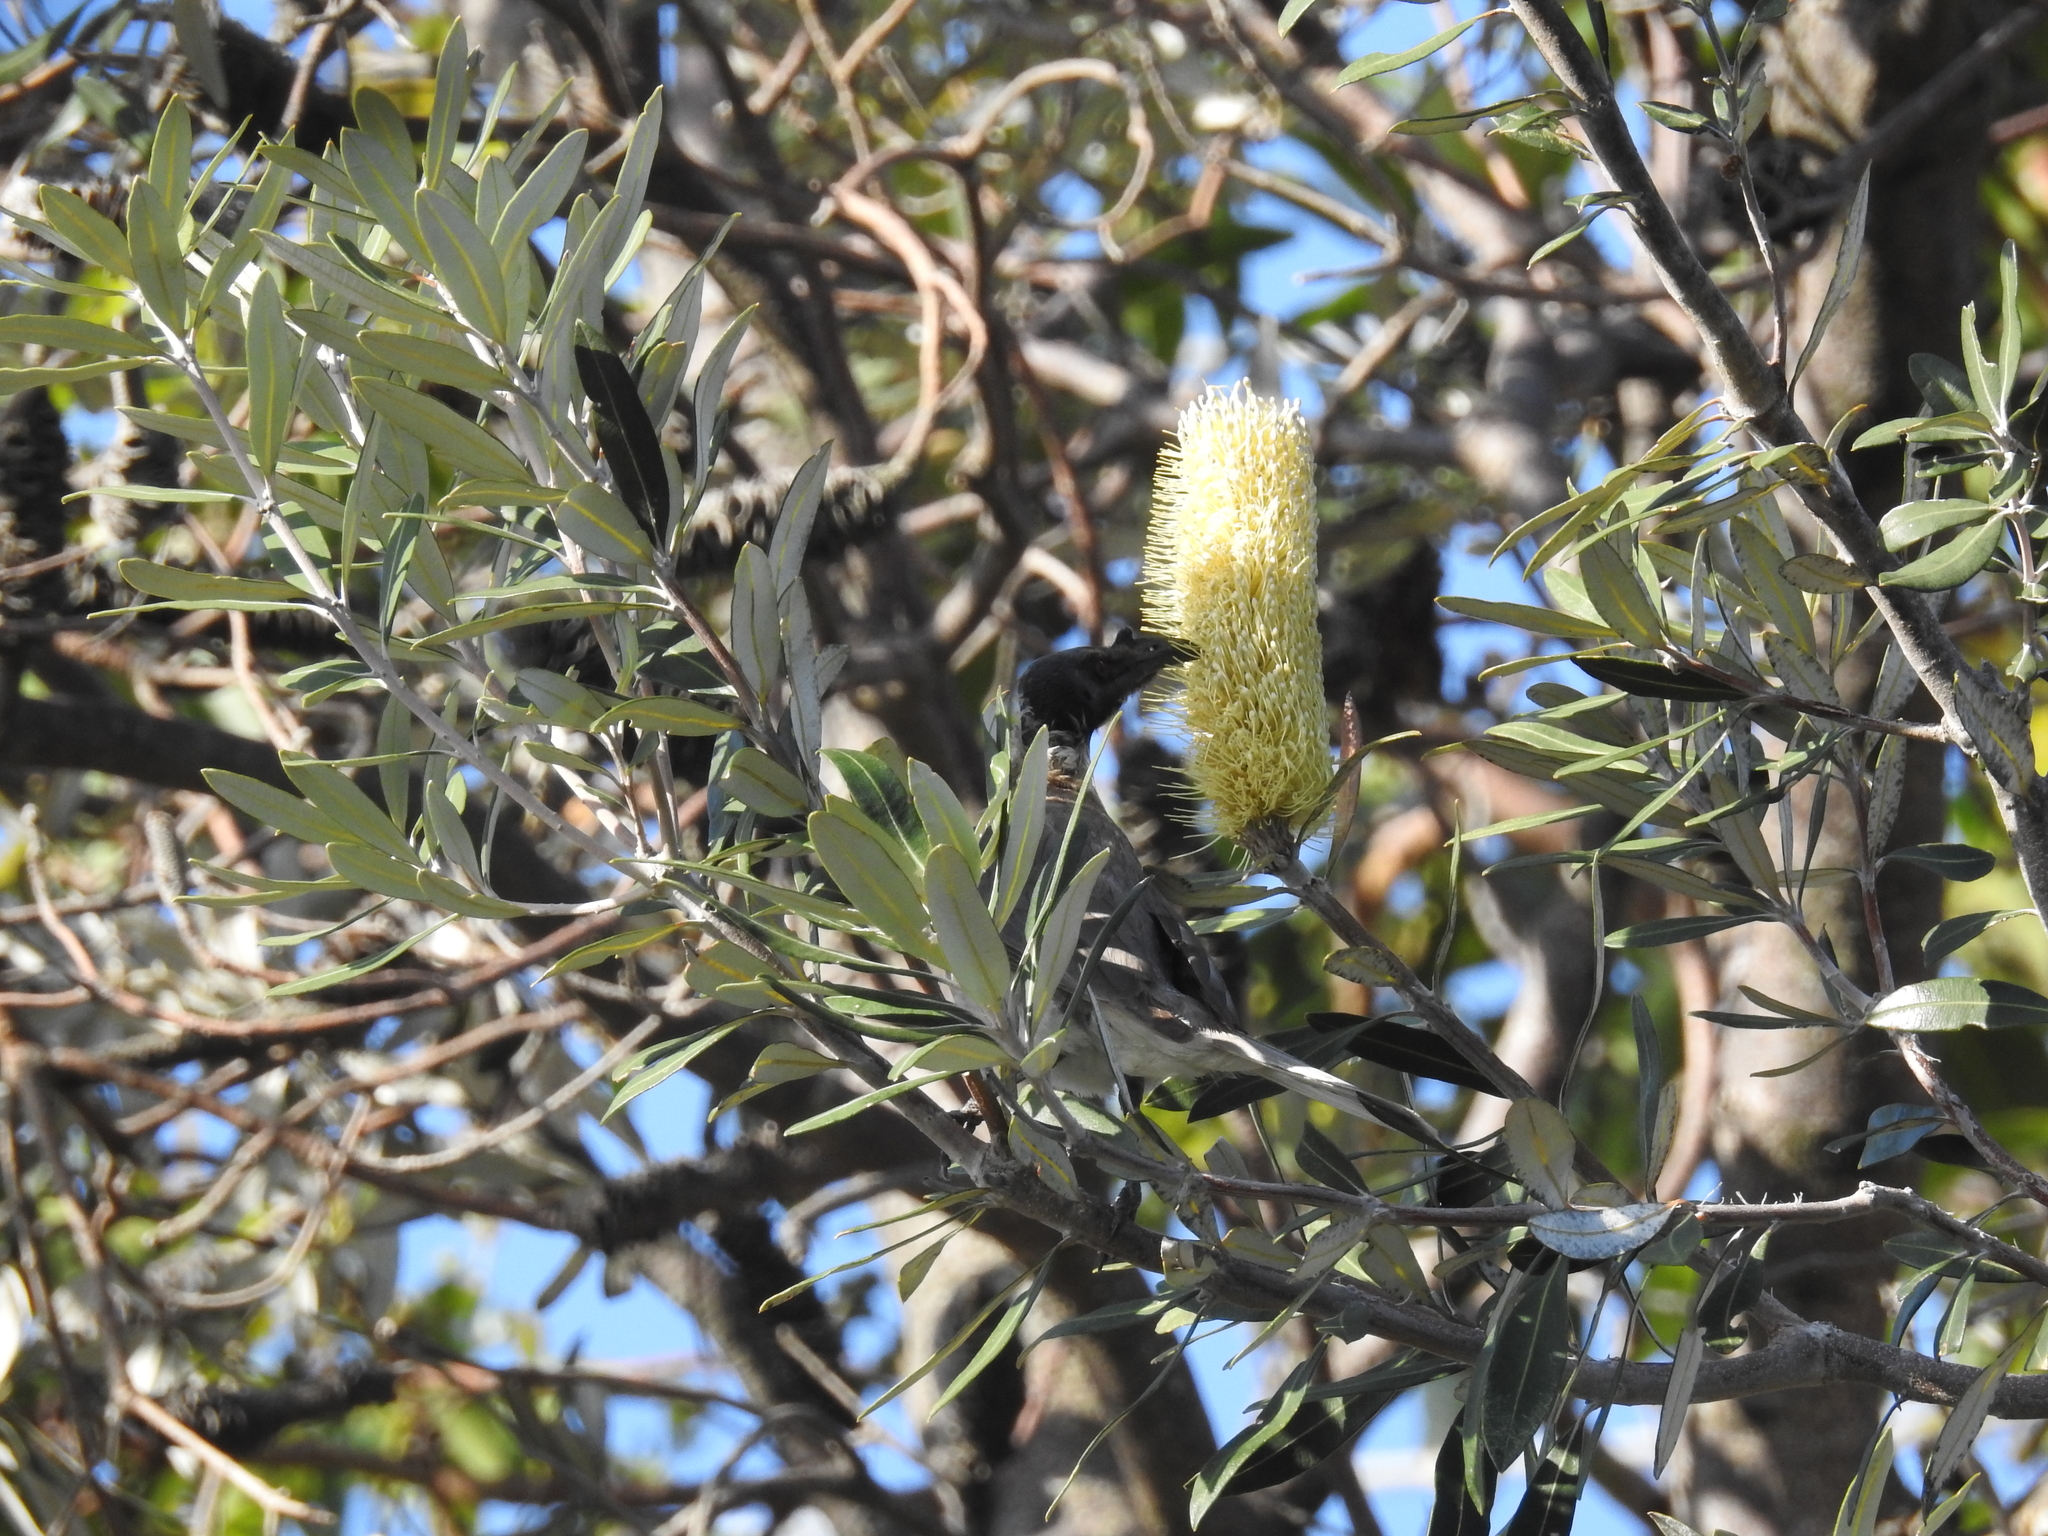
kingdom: Animalia
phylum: Chordata
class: Aves
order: Passeriformes
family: Meliphagidae
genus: Philemon
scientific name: Philemon corniculatus
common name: Noisy friarbird
